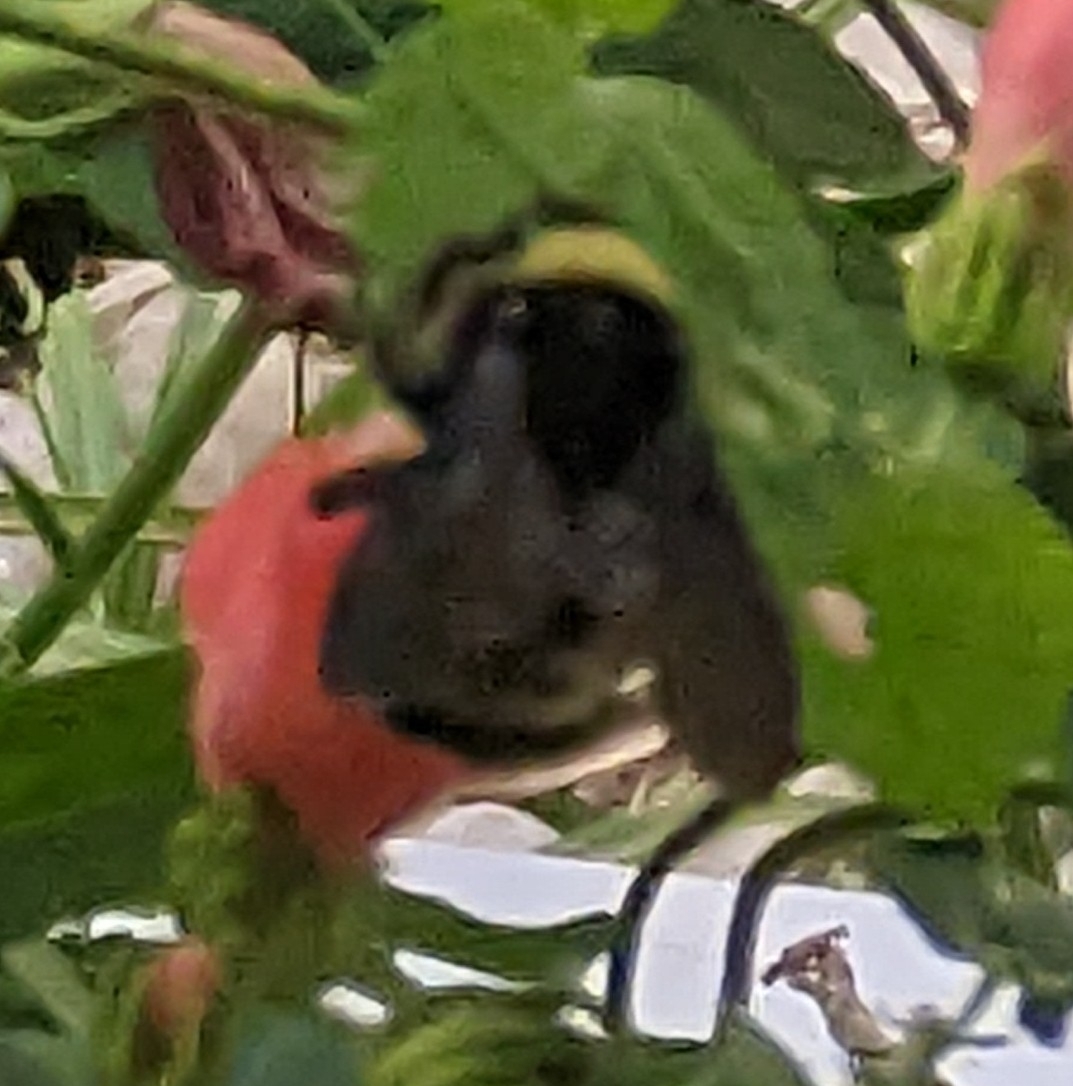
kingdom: Animalia
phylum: Arthropoda
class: Insecta
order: Hymenoptera
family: Apidae
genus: Bombus
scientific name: Bombus pensylvanicus
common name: Bumble bee
